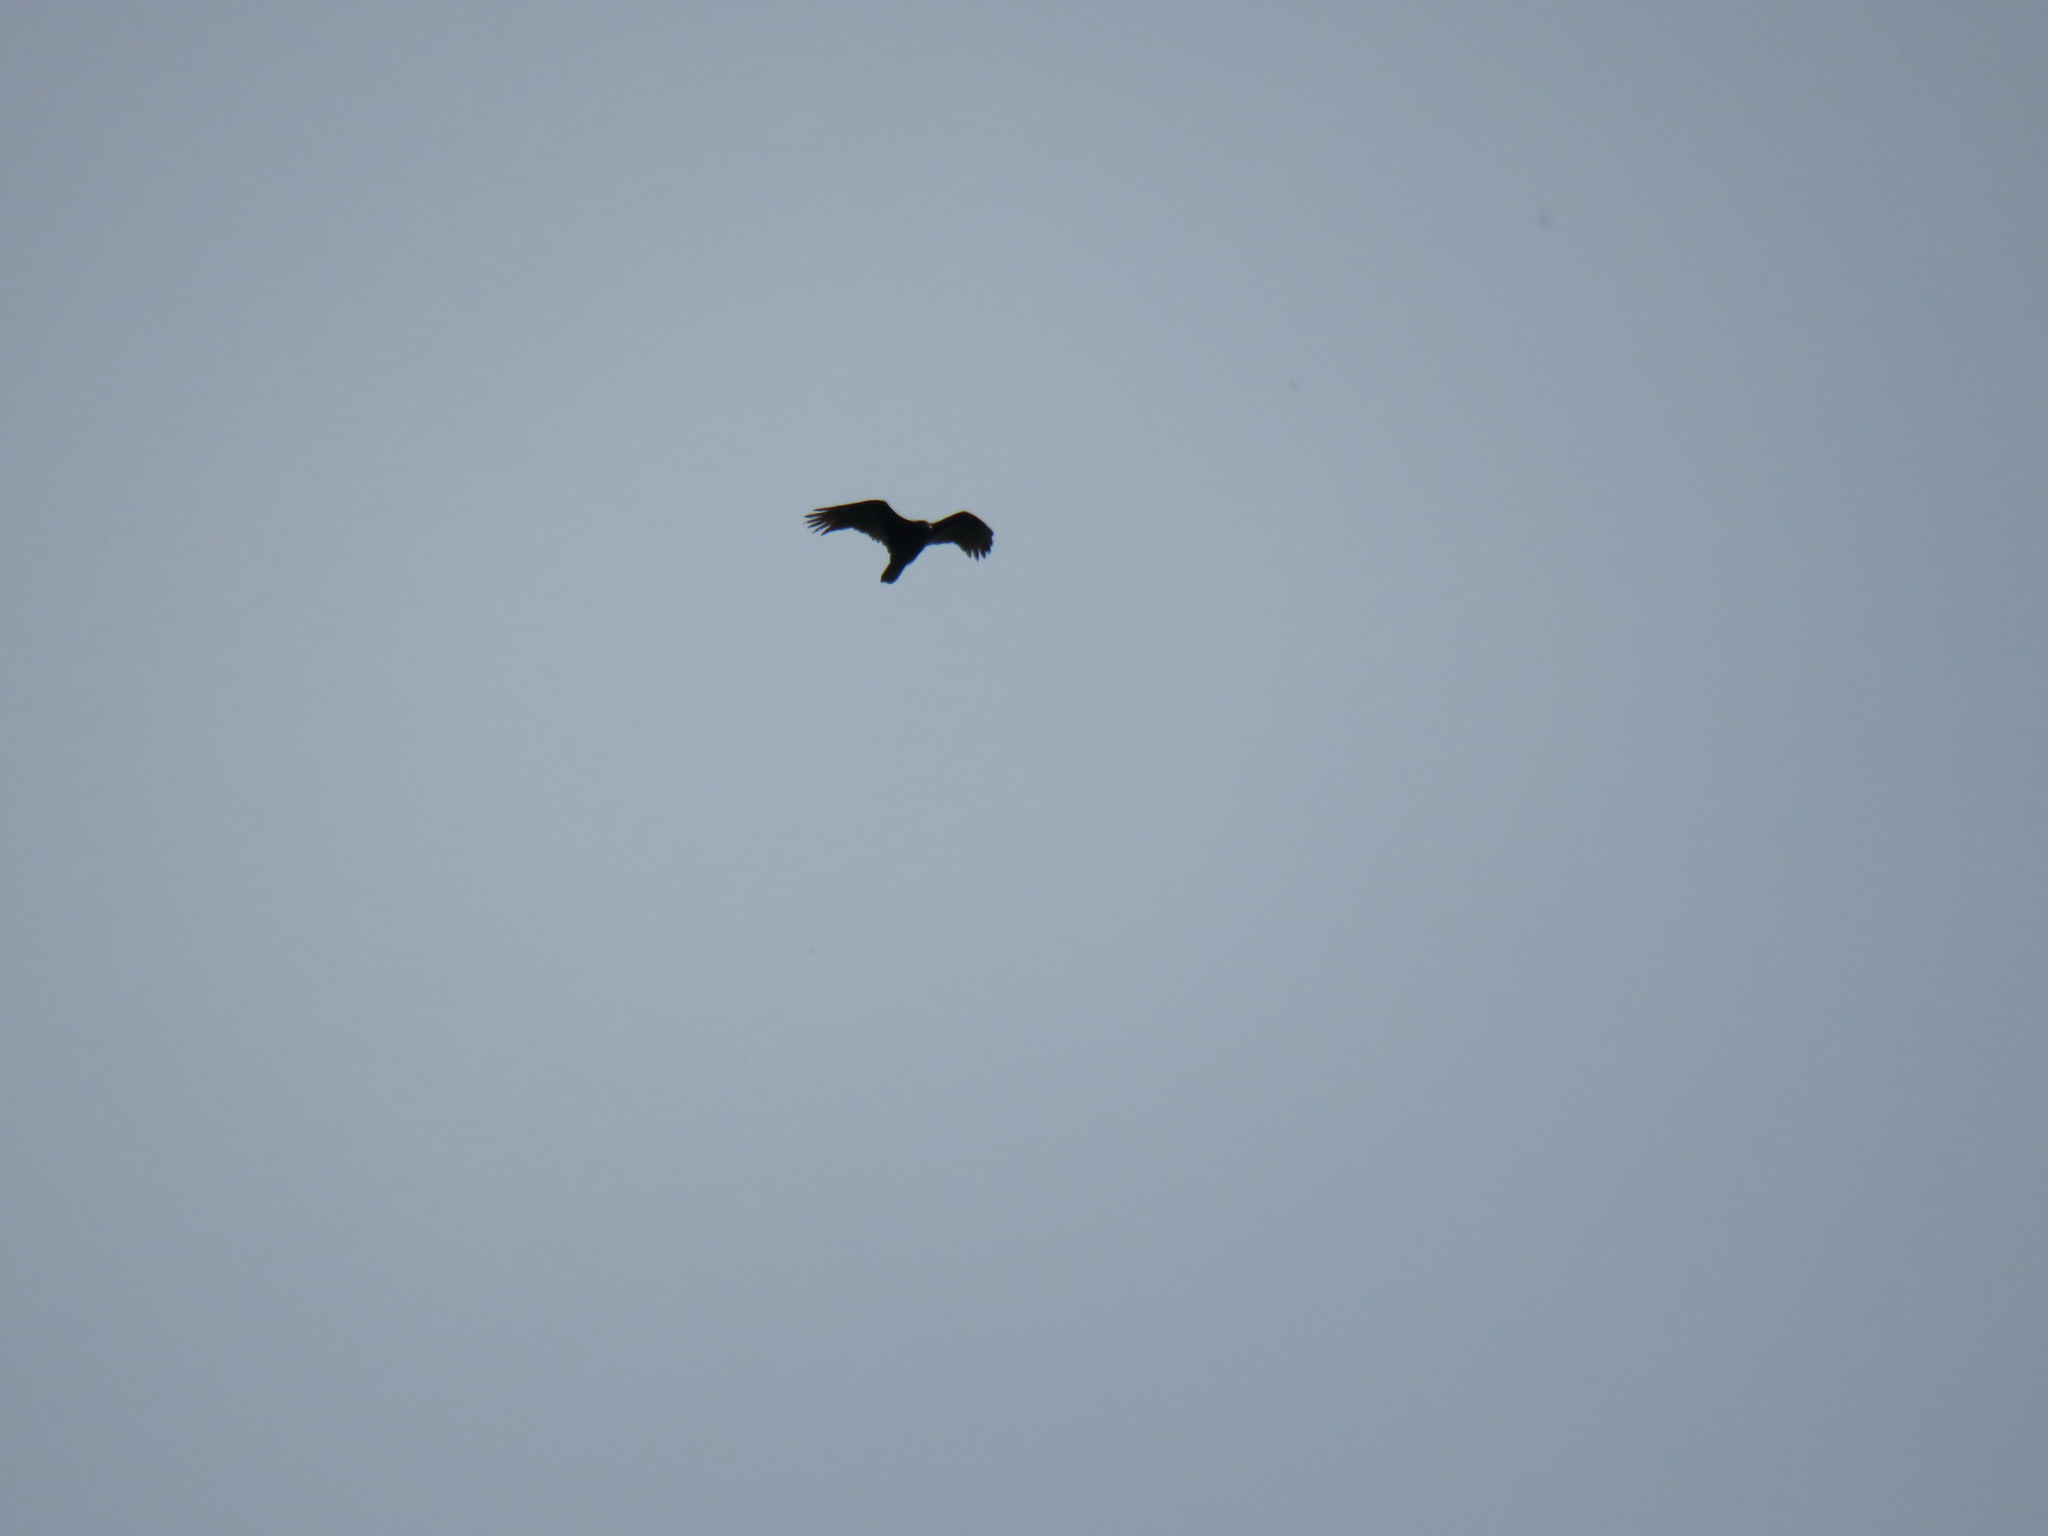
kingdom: Animalia
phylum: Chordata
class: Aves
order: Accipitriformes
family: Cathartidae
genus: Cathartes
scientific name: Cathartes aura
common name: Turkey vulture
